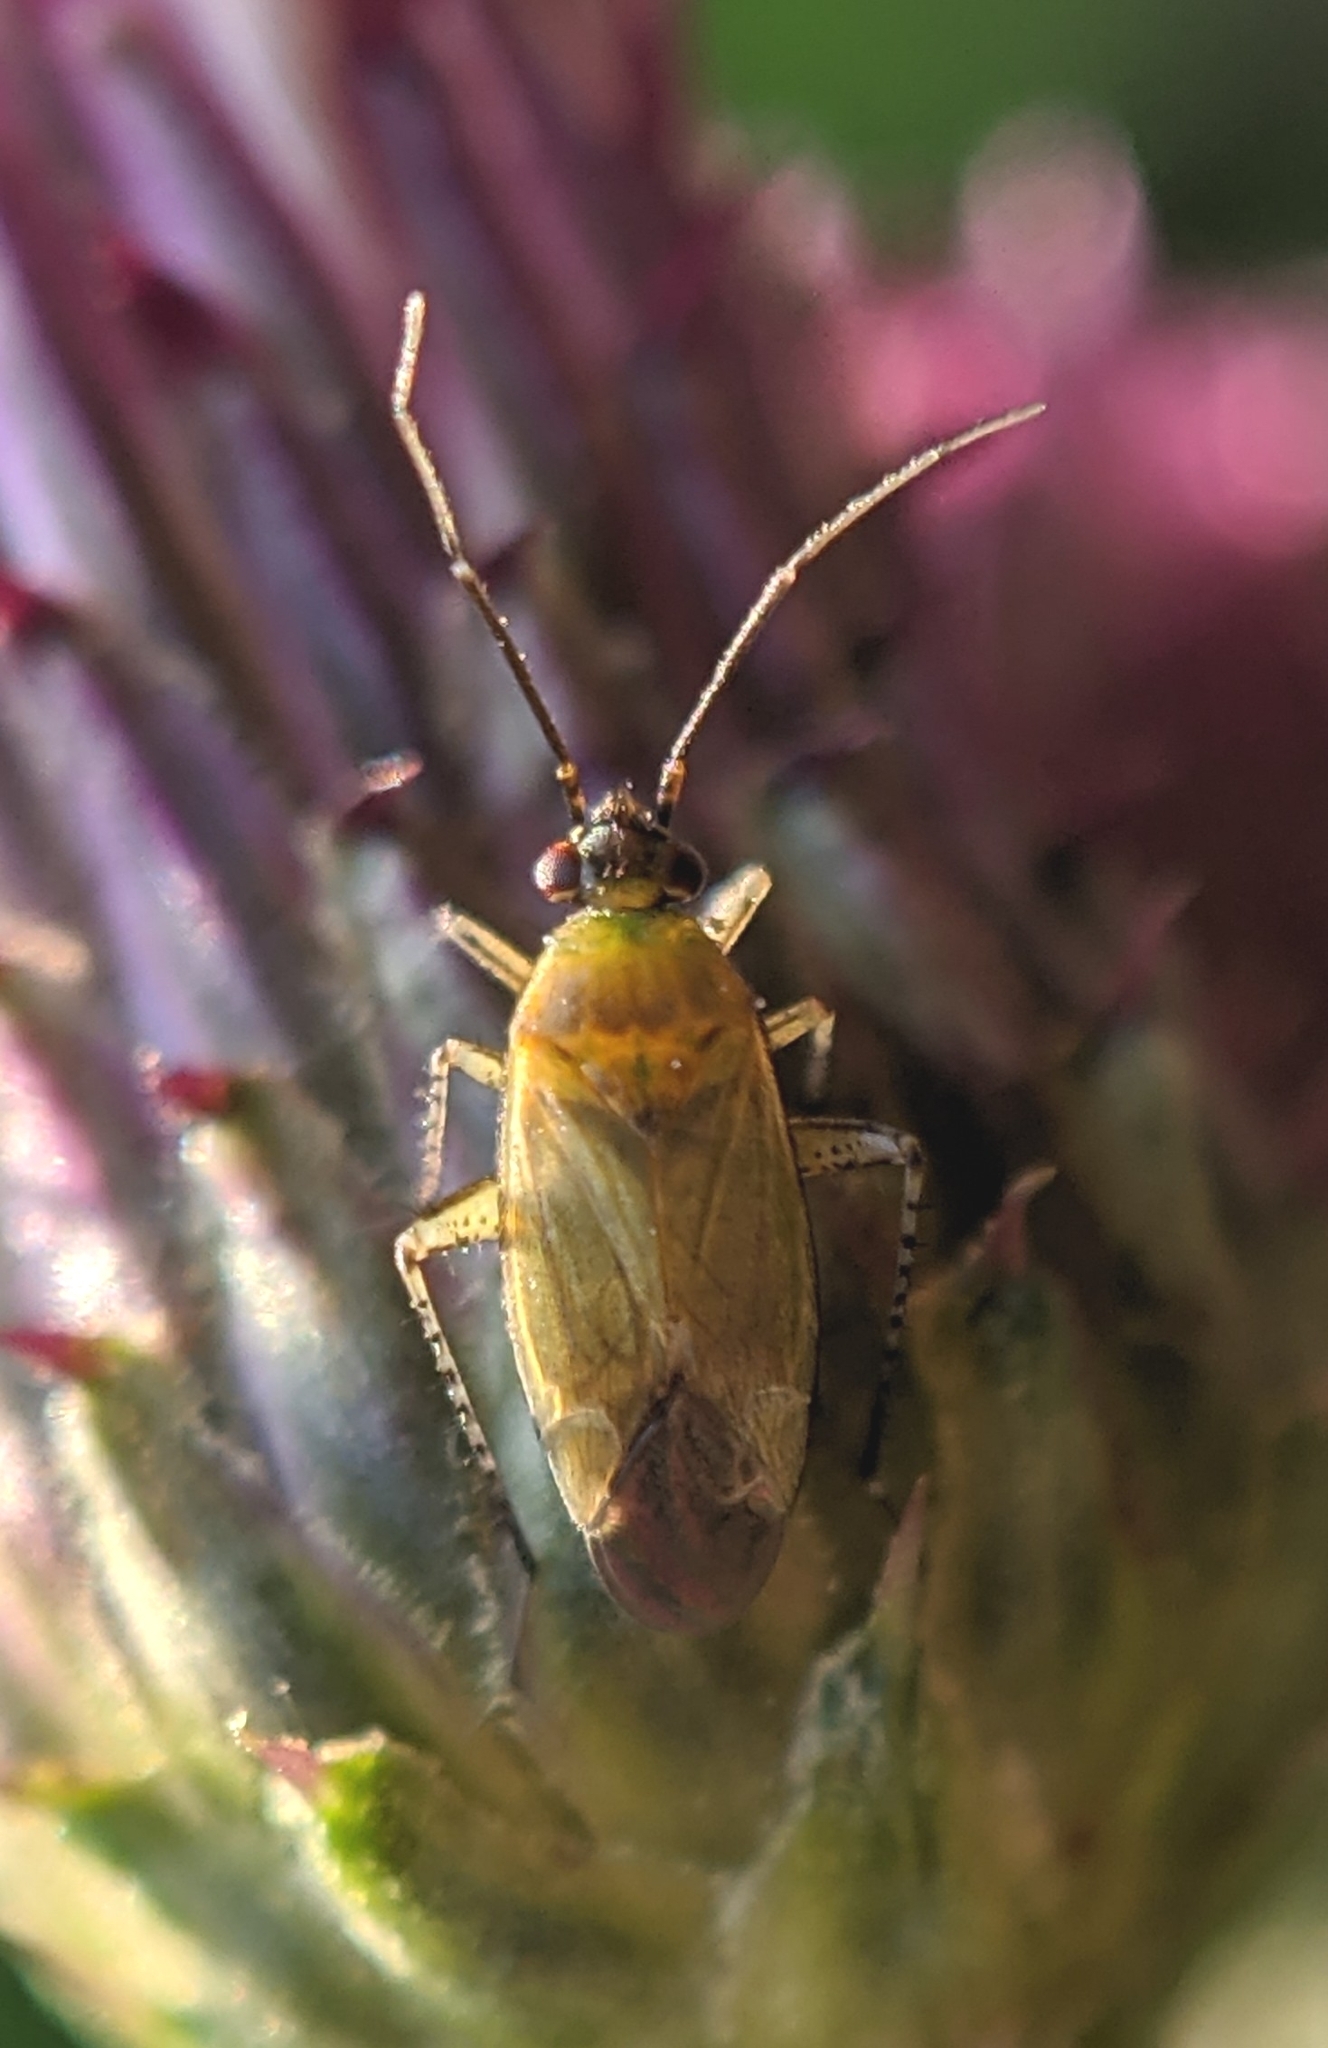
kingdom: Animalia
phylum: Arthropoda
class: Insecta
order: Hemiptera
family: Miridae
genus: Plagiognathus
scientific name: Plagiognathus arbustorum
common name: Plant bug
